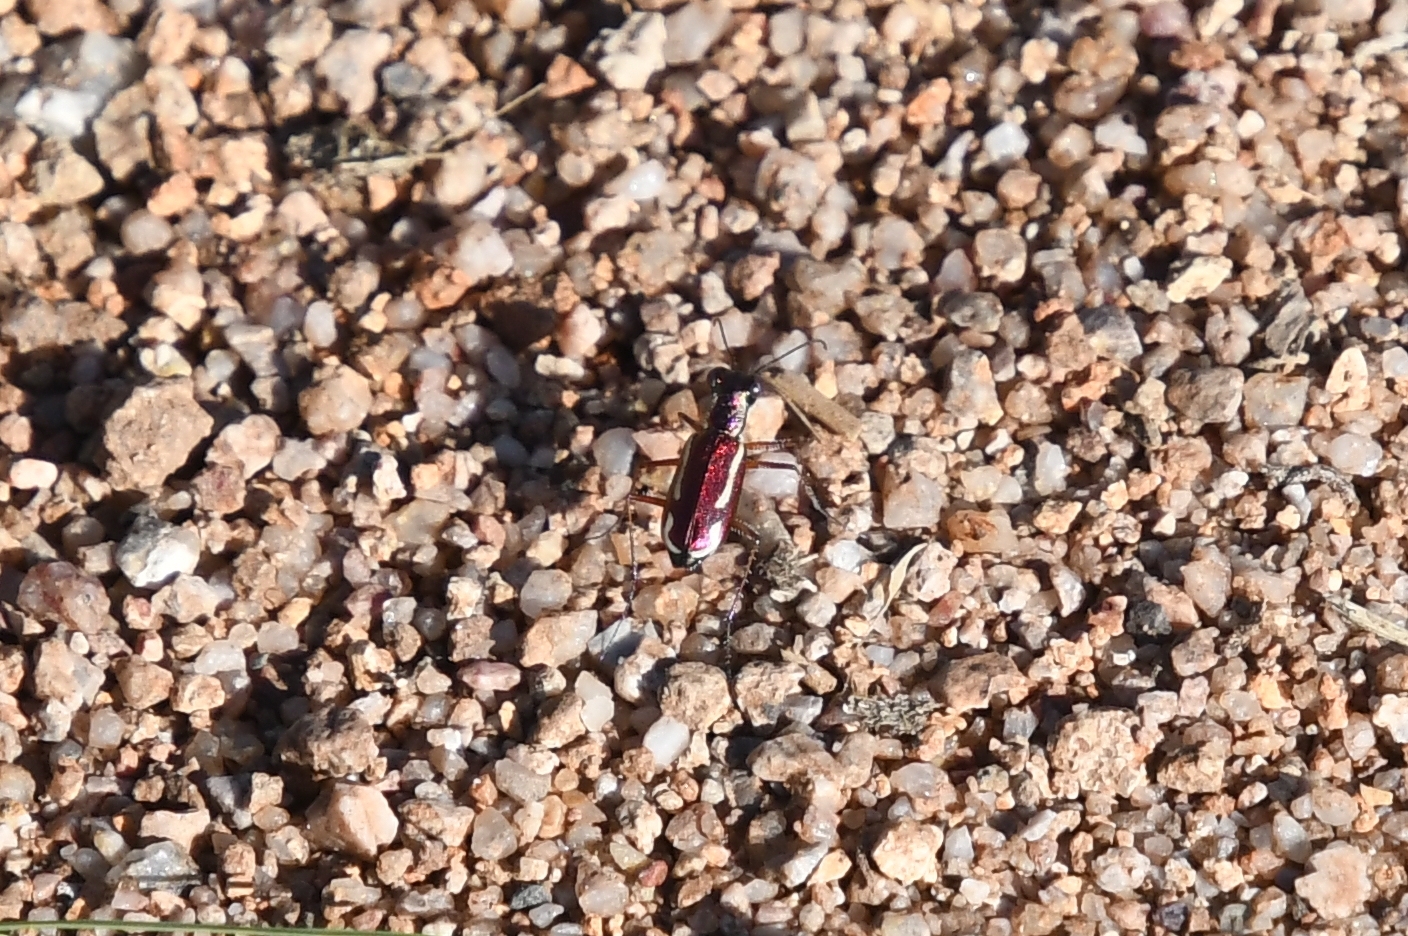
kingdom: Animalia
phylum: Arthropoda
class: Insecta
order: Coleoptera
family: Carabidae
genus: Cylindera
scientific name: Cylindera lemniscata
